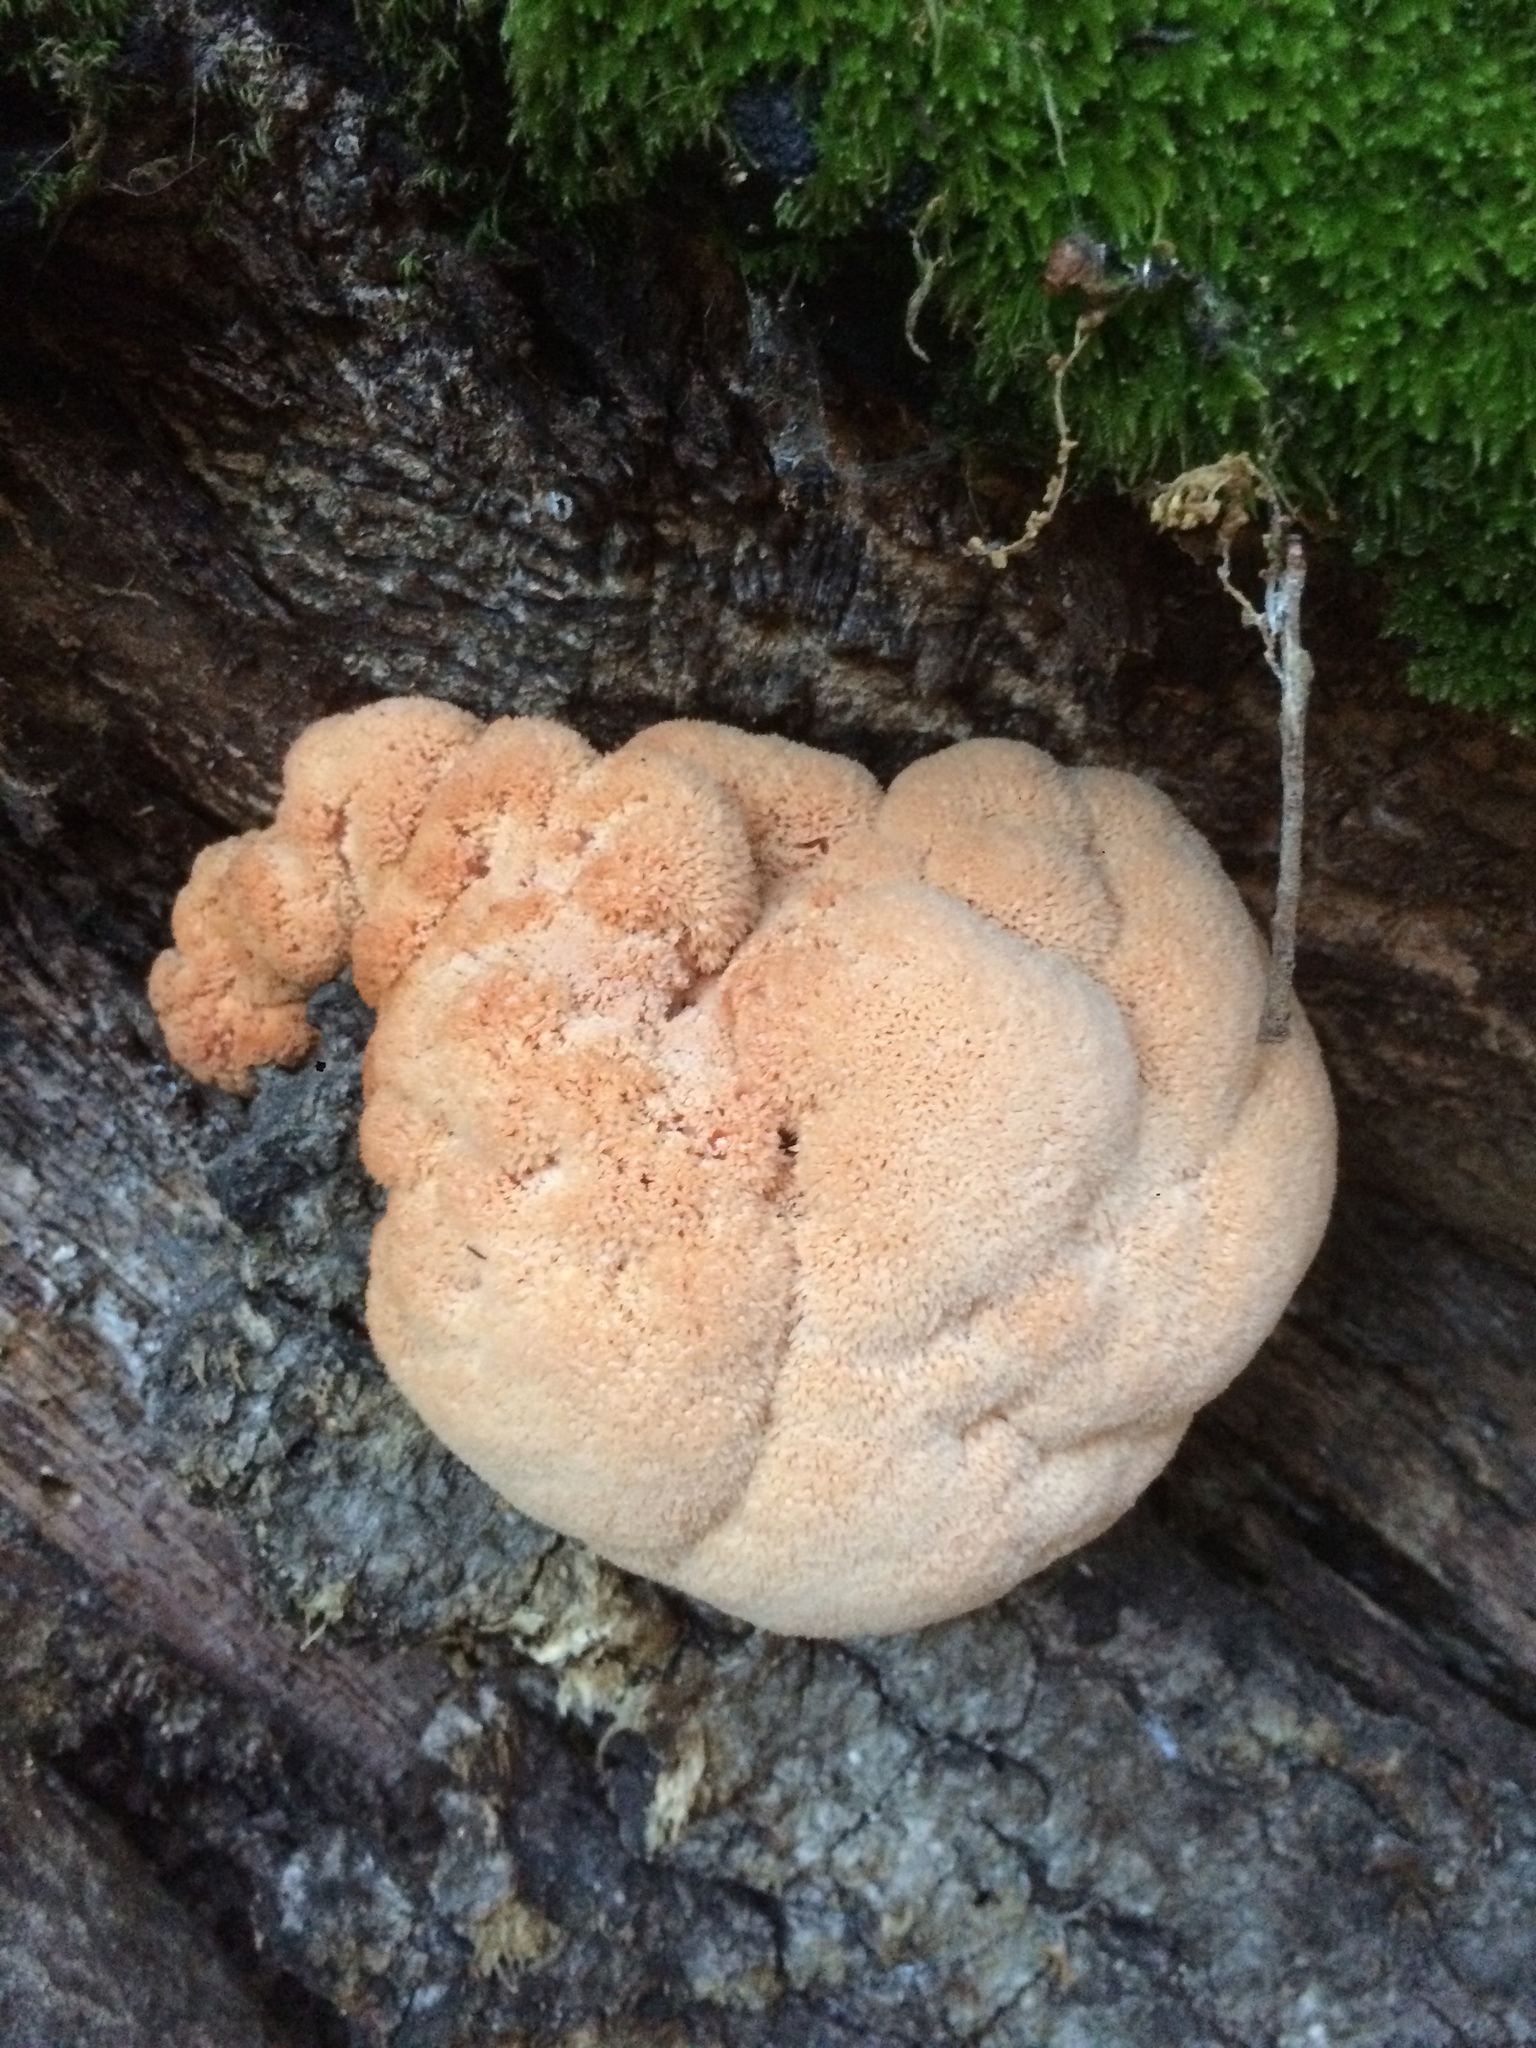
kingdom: Fungi
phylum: Basidiomycota
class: Agaricomycetes
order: Russulales
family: Hericiaceae
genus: Hericium
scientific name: Hericium erinaceus
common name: Bearded tooth
